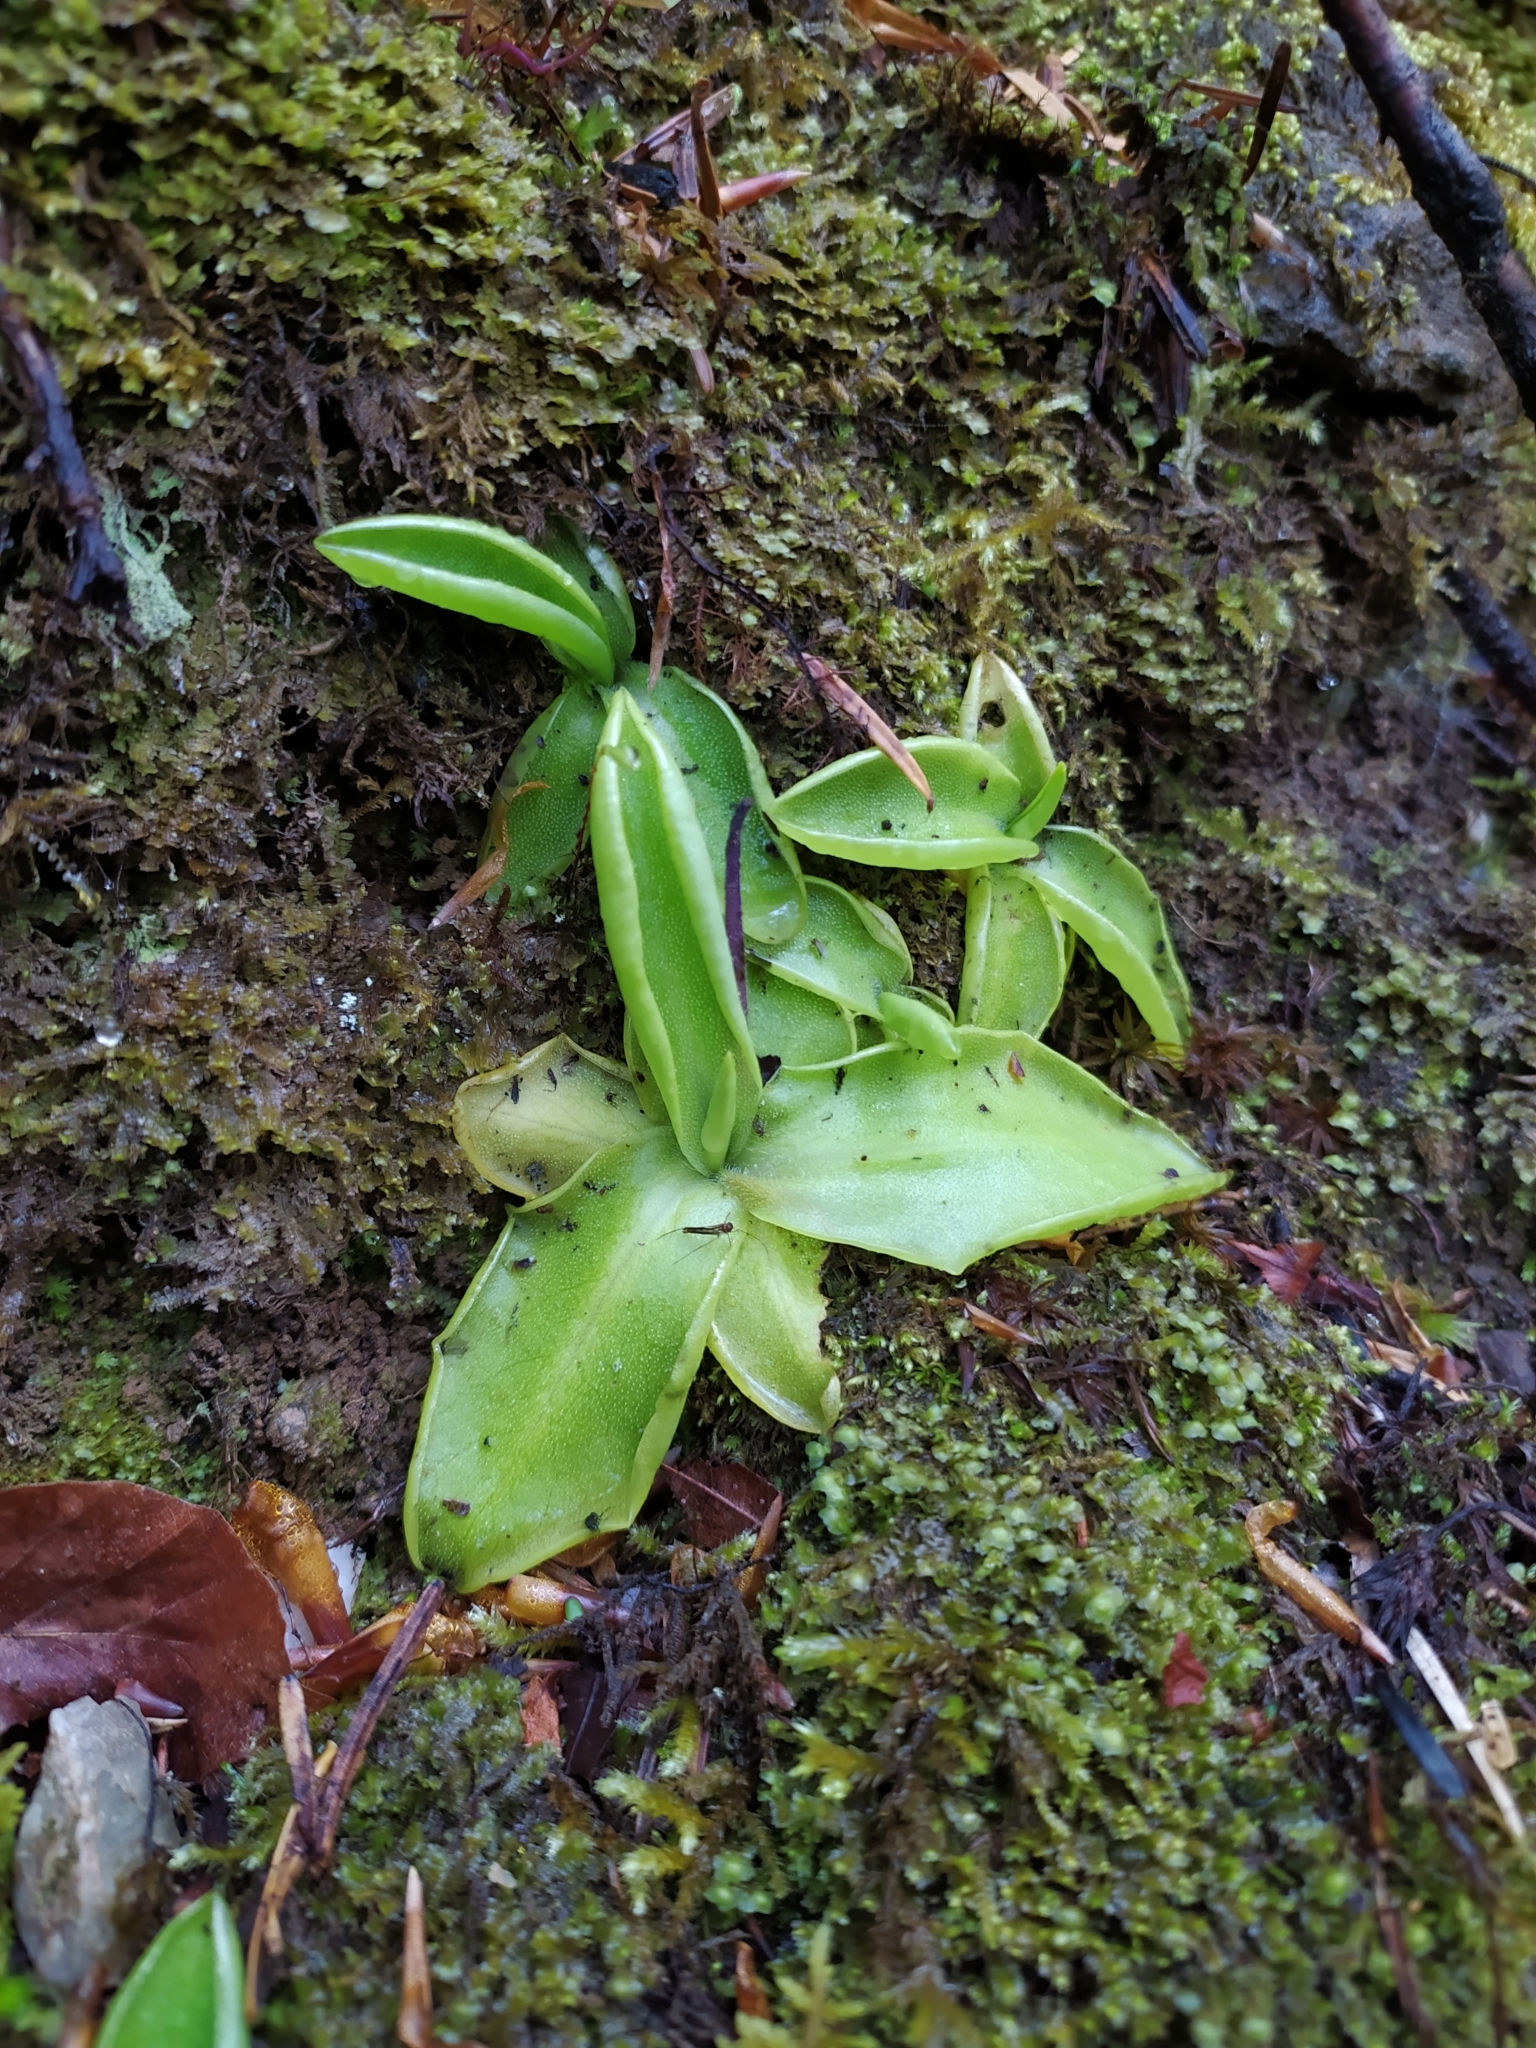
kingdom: Plantae
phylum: Tracheophyta
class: Magnoliopsida
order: Lamiales
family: Lentibulariaceae
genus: Pinguicula
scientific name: Pinguicula grandiflora
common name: Large-flowered butterwort
